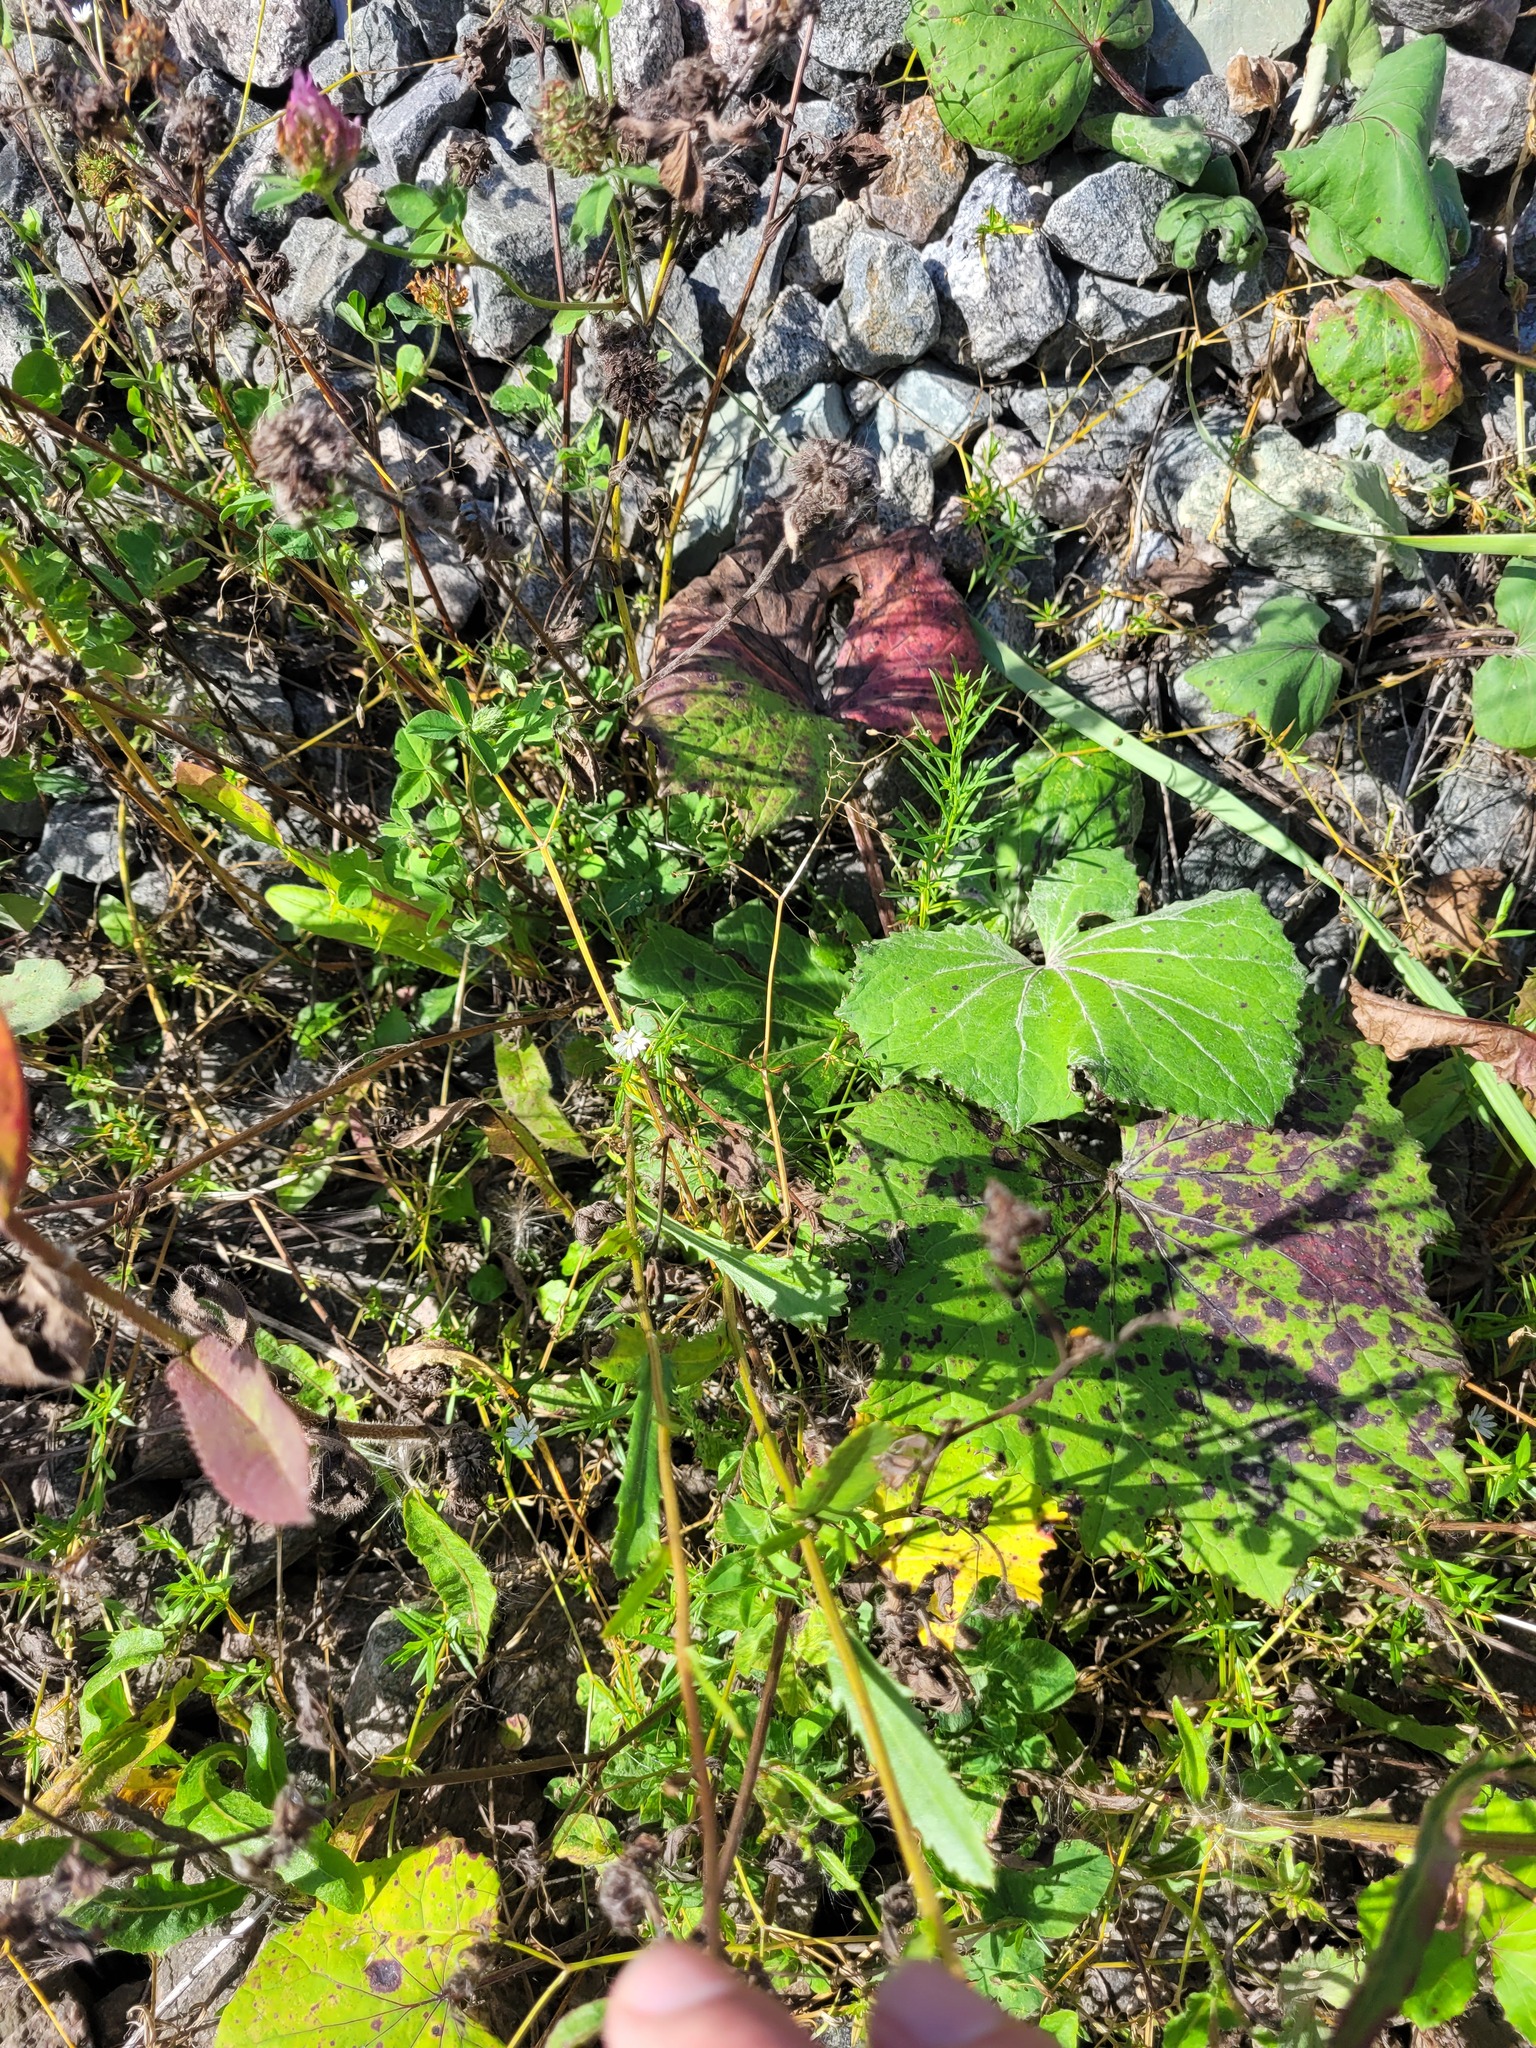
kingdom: Plantae
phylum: Tracheophyta
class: Magnoliopsida
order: Caryophyllales
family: Caryophyllaceae
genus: Stellaria
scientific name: Stellaria graminea
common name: Grass-like starwort
